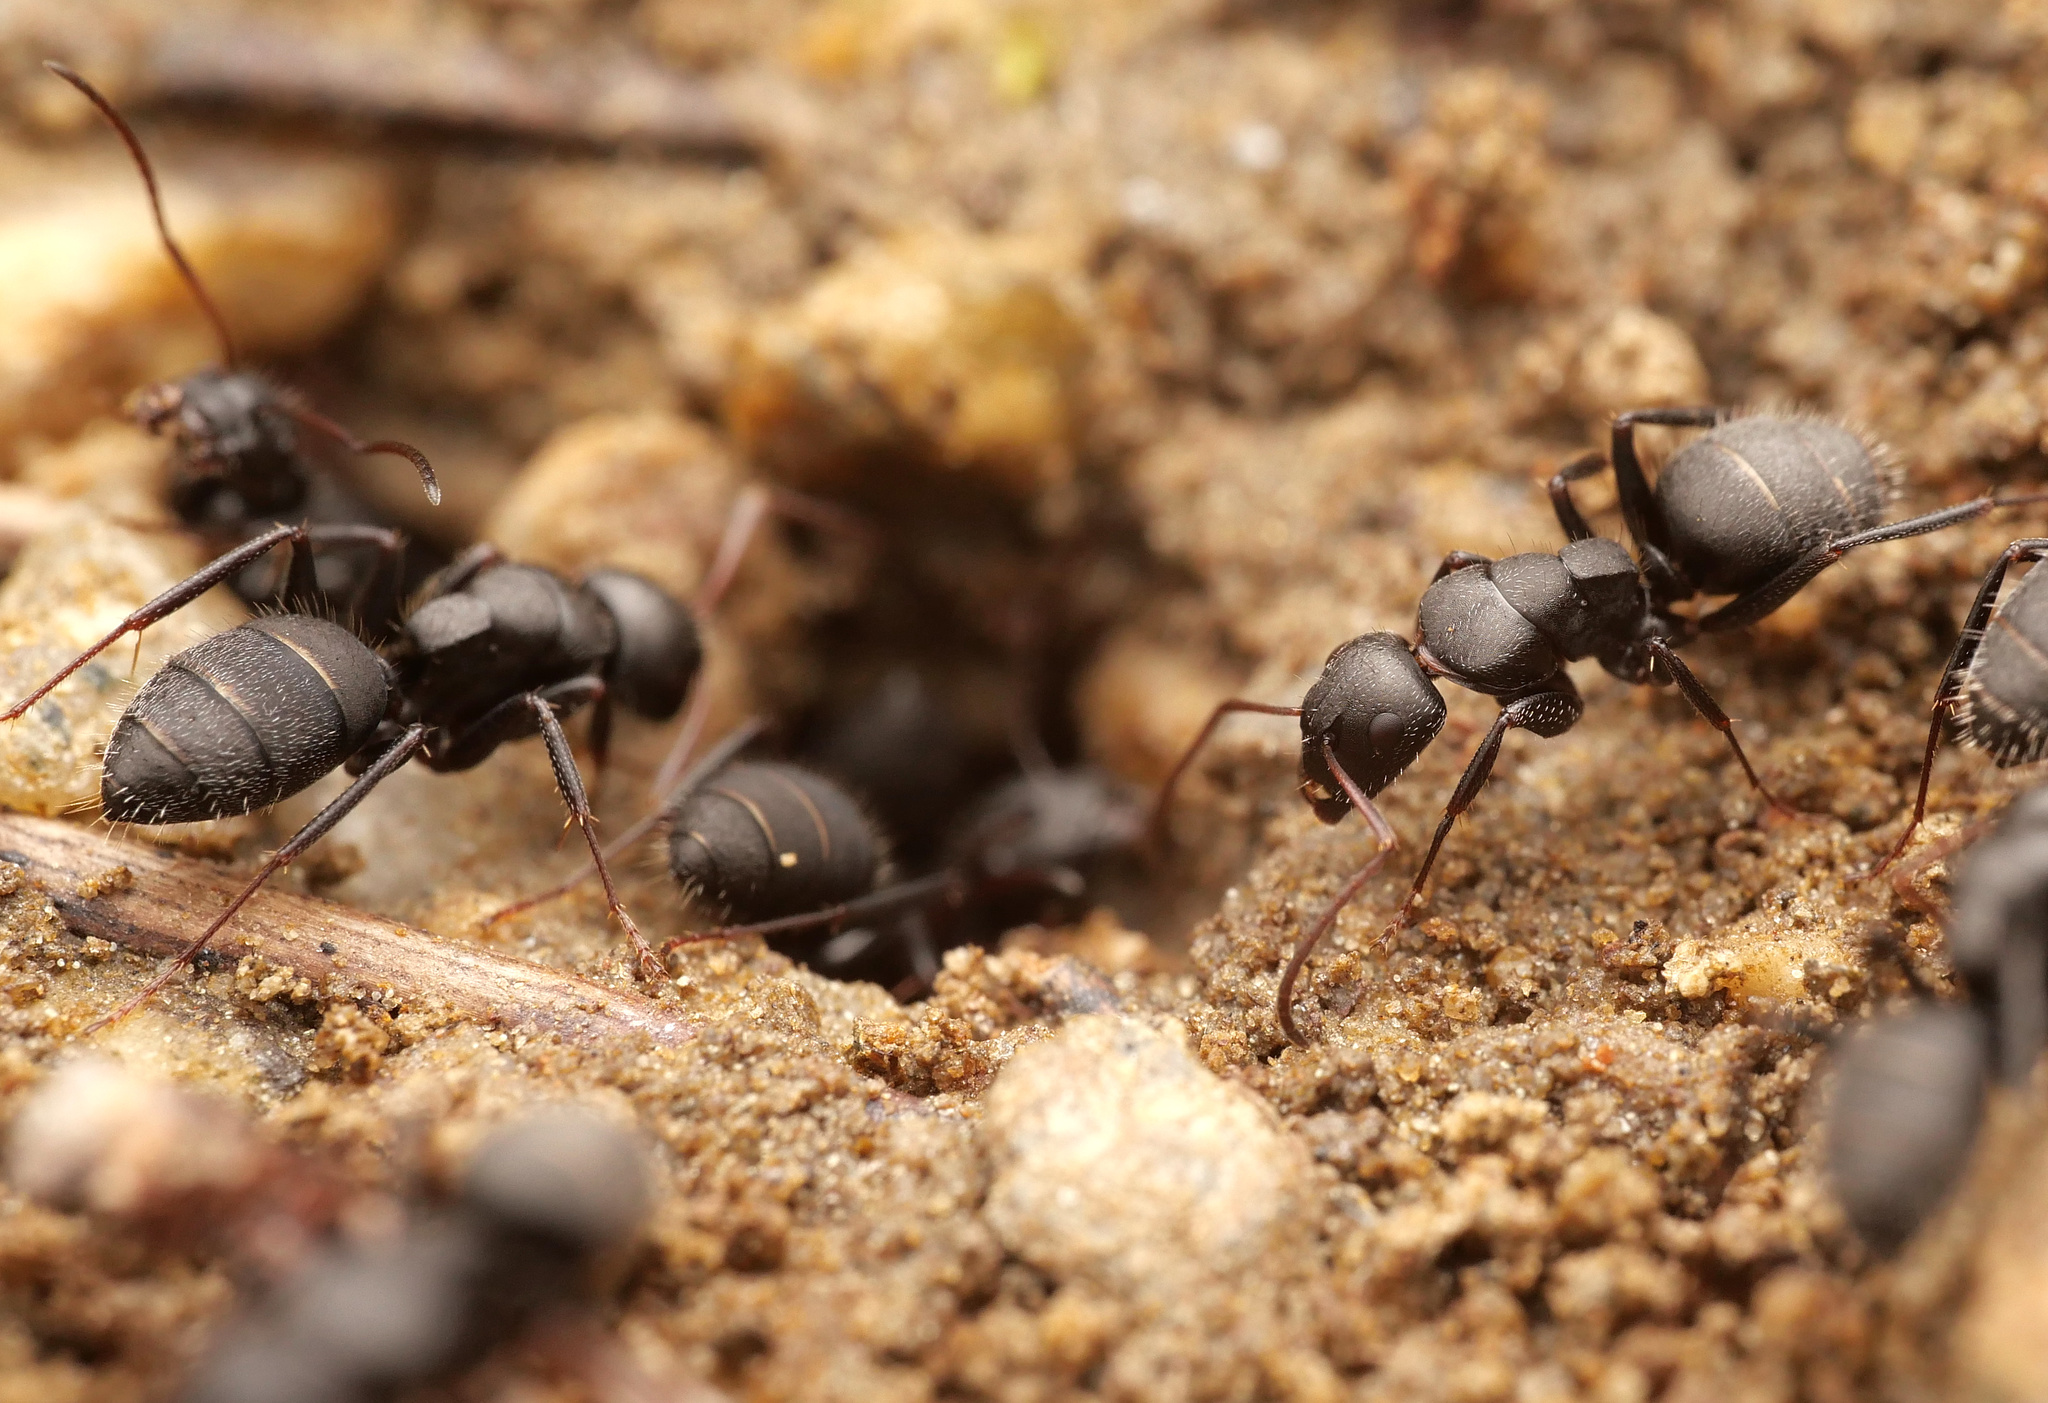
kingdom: Animalia
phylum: Arthropoda
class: Insecta
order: Hymenoptera
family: Formicidae
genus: Camponotus
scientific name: Camponotus aegaeus
